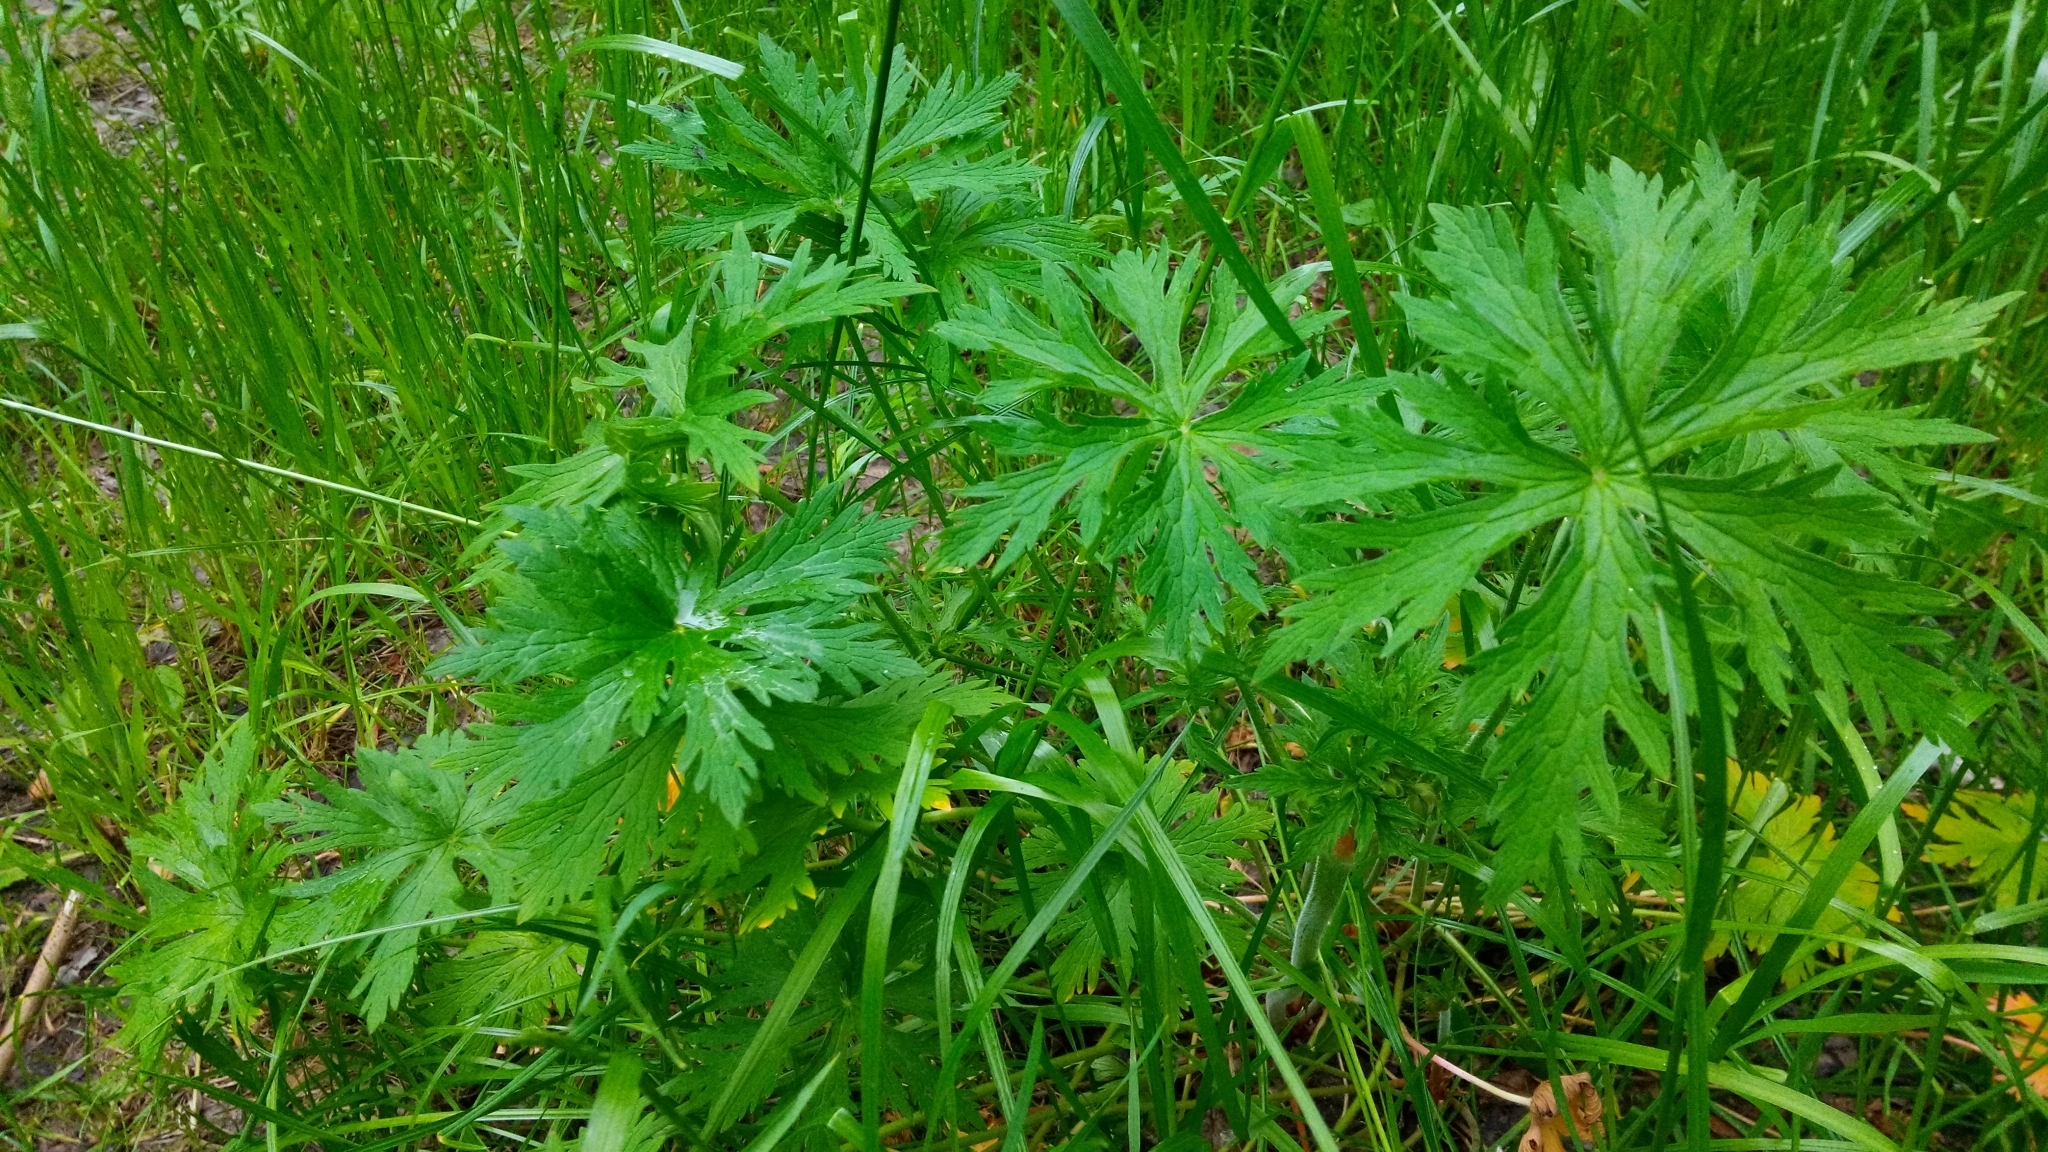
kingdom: Plantae
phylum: Tracheophyta
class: Magnoliopsida
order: Geraniales
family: Geraniaceae
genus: Geranium
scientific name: Geranium pratense
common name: Meadow crane's-bill
